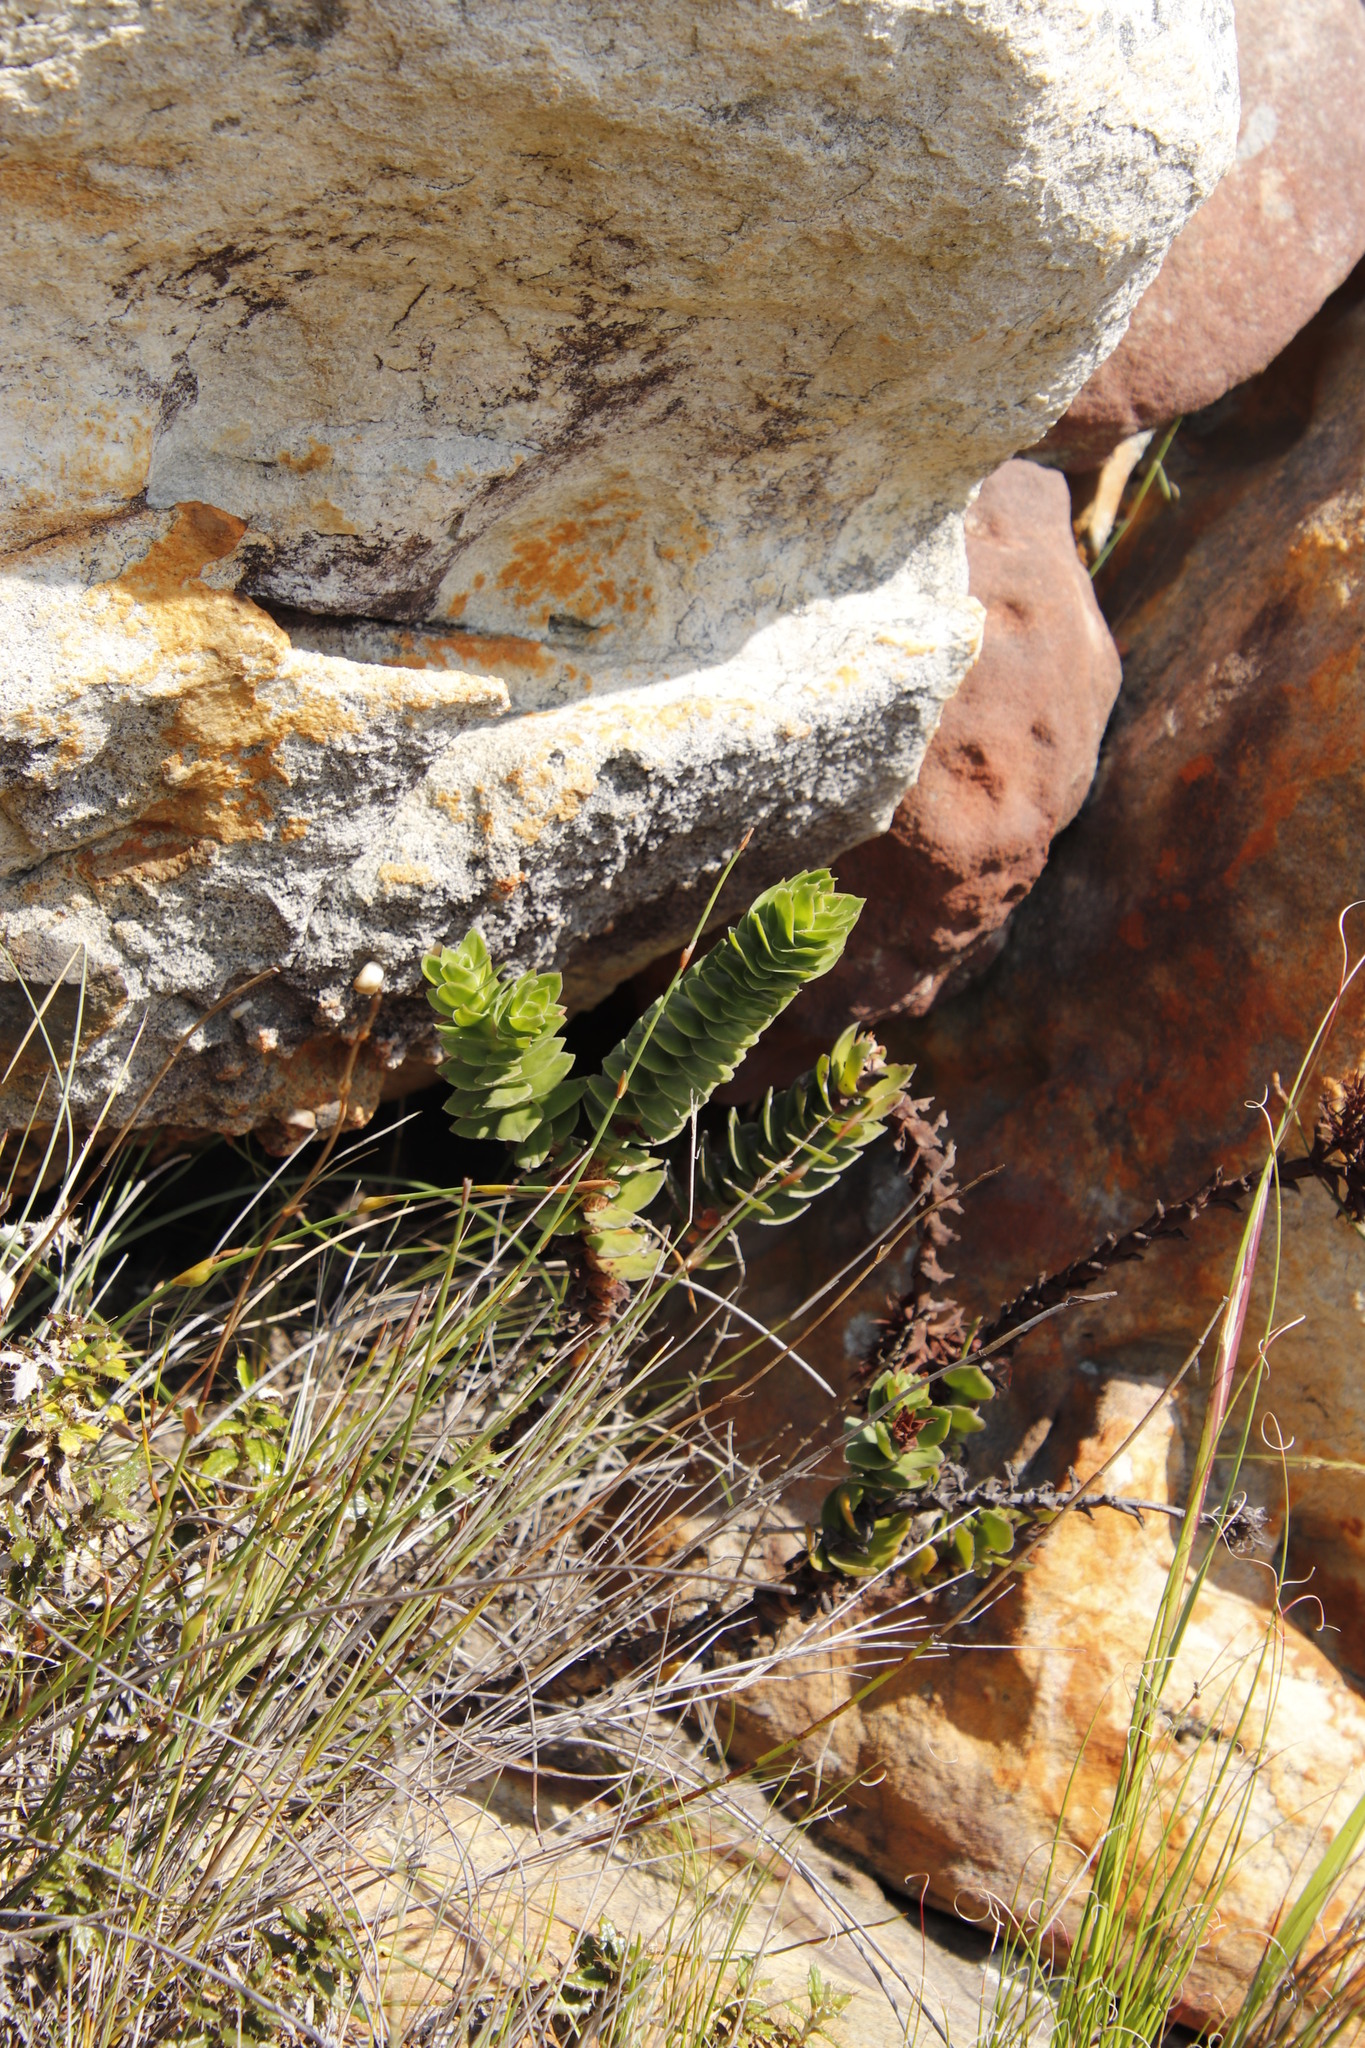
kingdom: Plantae
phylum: Tracheophyta
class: Magnoliopsida
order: Saxifragales
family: Crassulaceae
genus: Crassula
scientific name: Crassula coccinea
